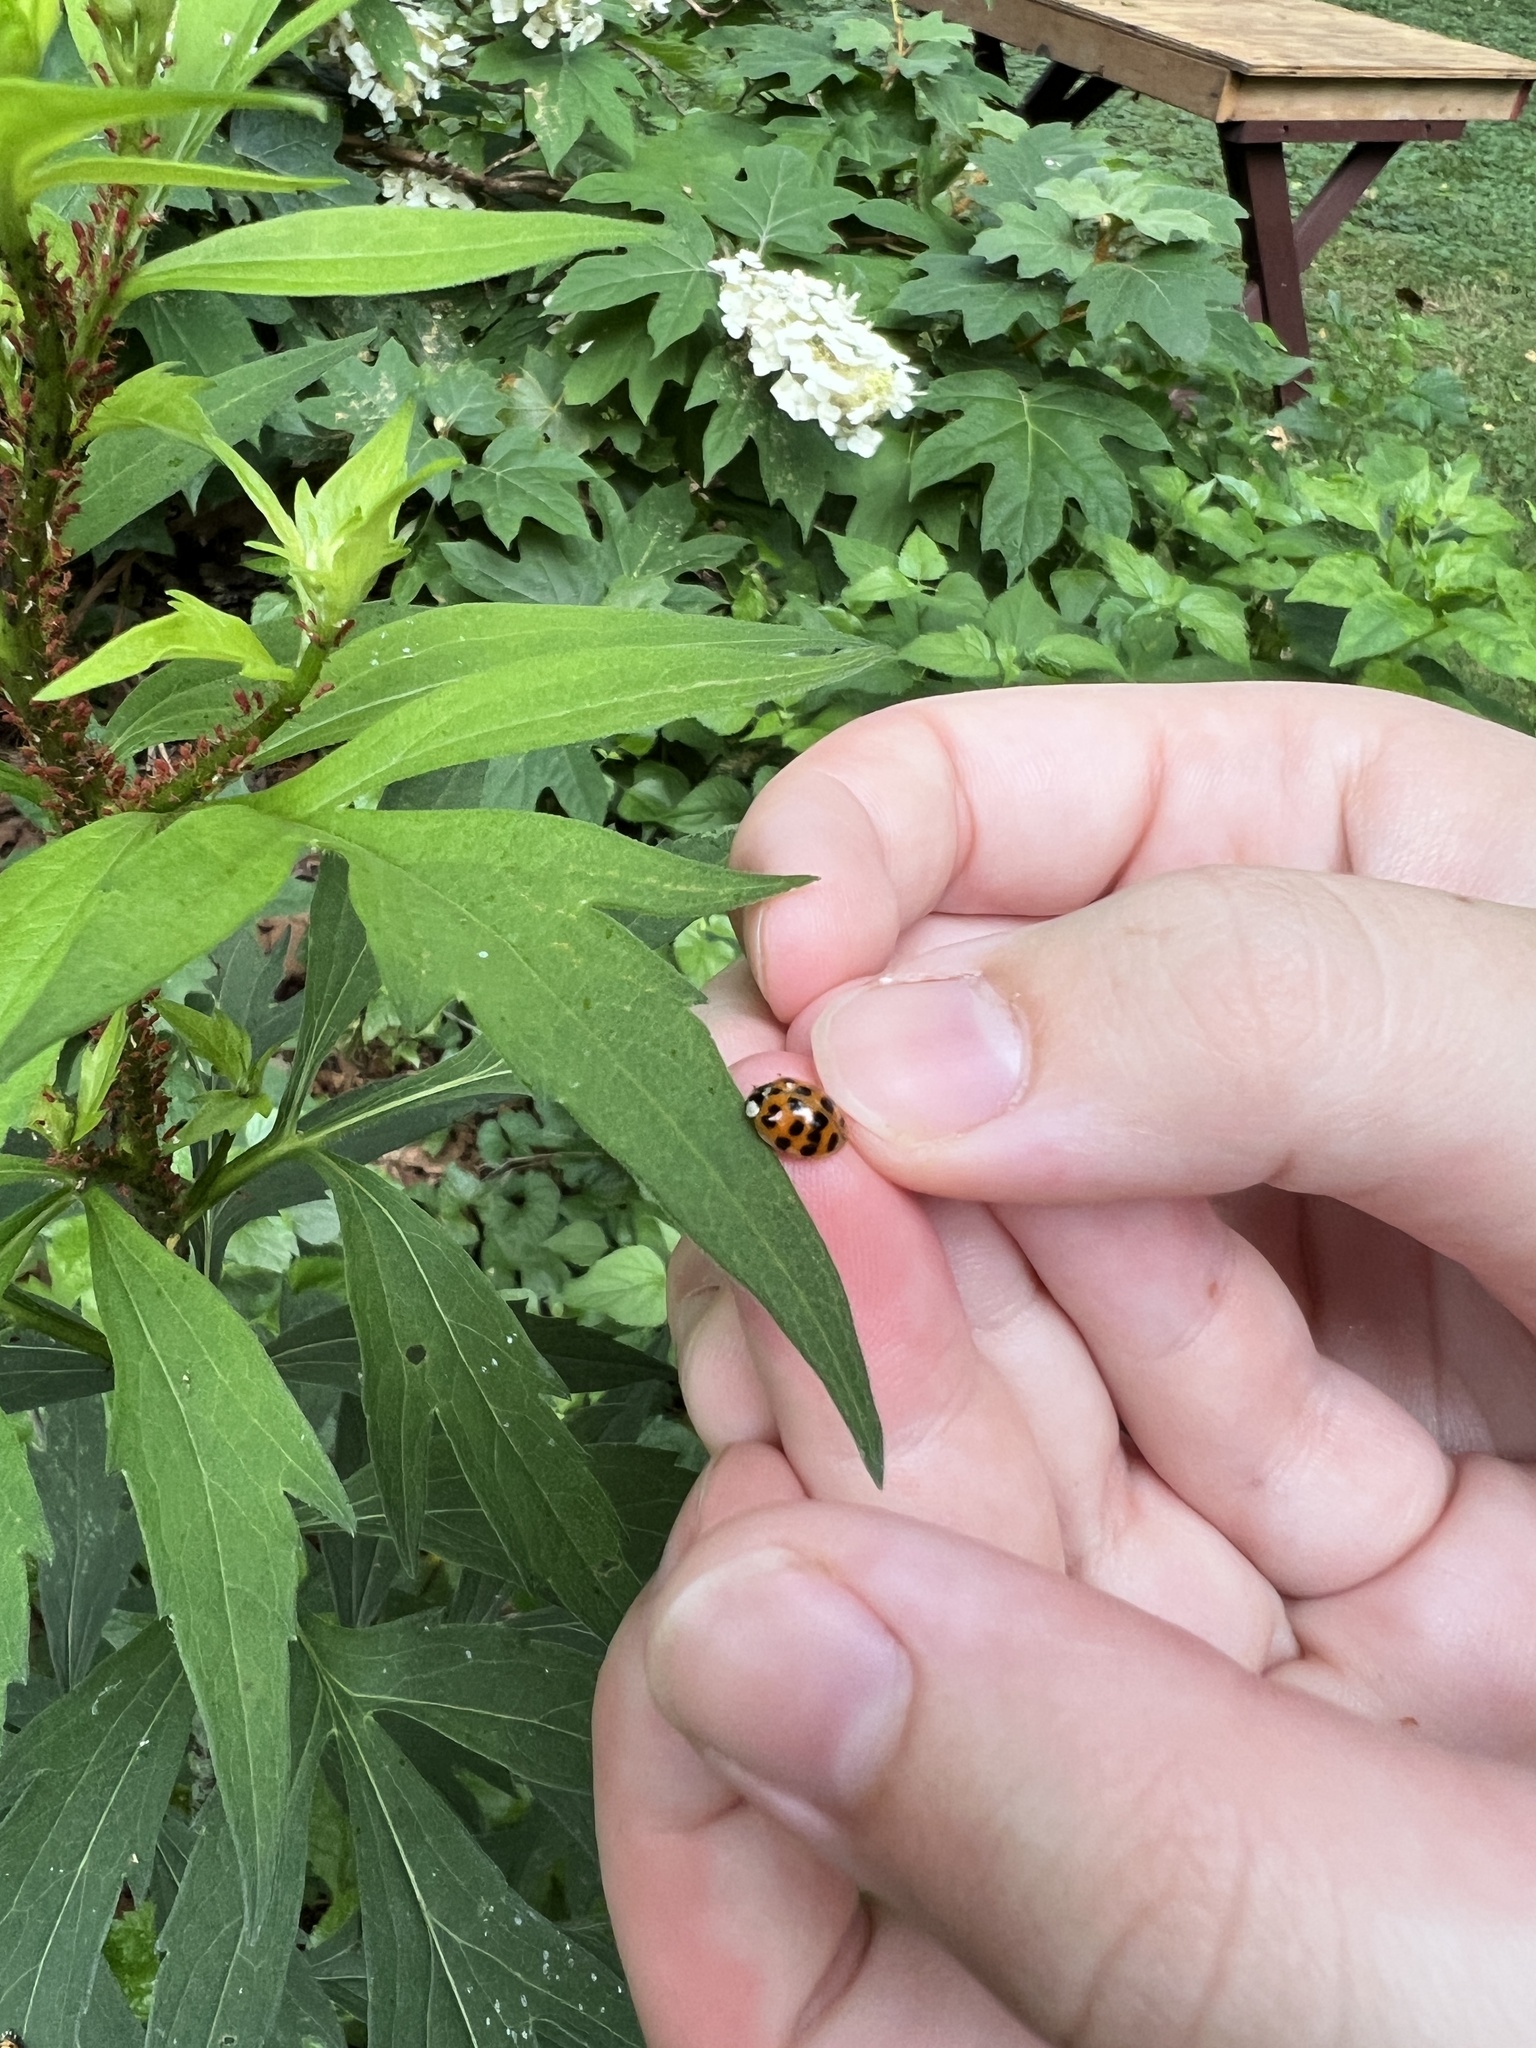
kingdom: Animalia
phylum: Arthropoda
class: Insecta
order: Coleoptera
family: Coccinellidae
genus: Harmonia
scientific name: Harmonia axyridis
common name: Harlequin ladybird
